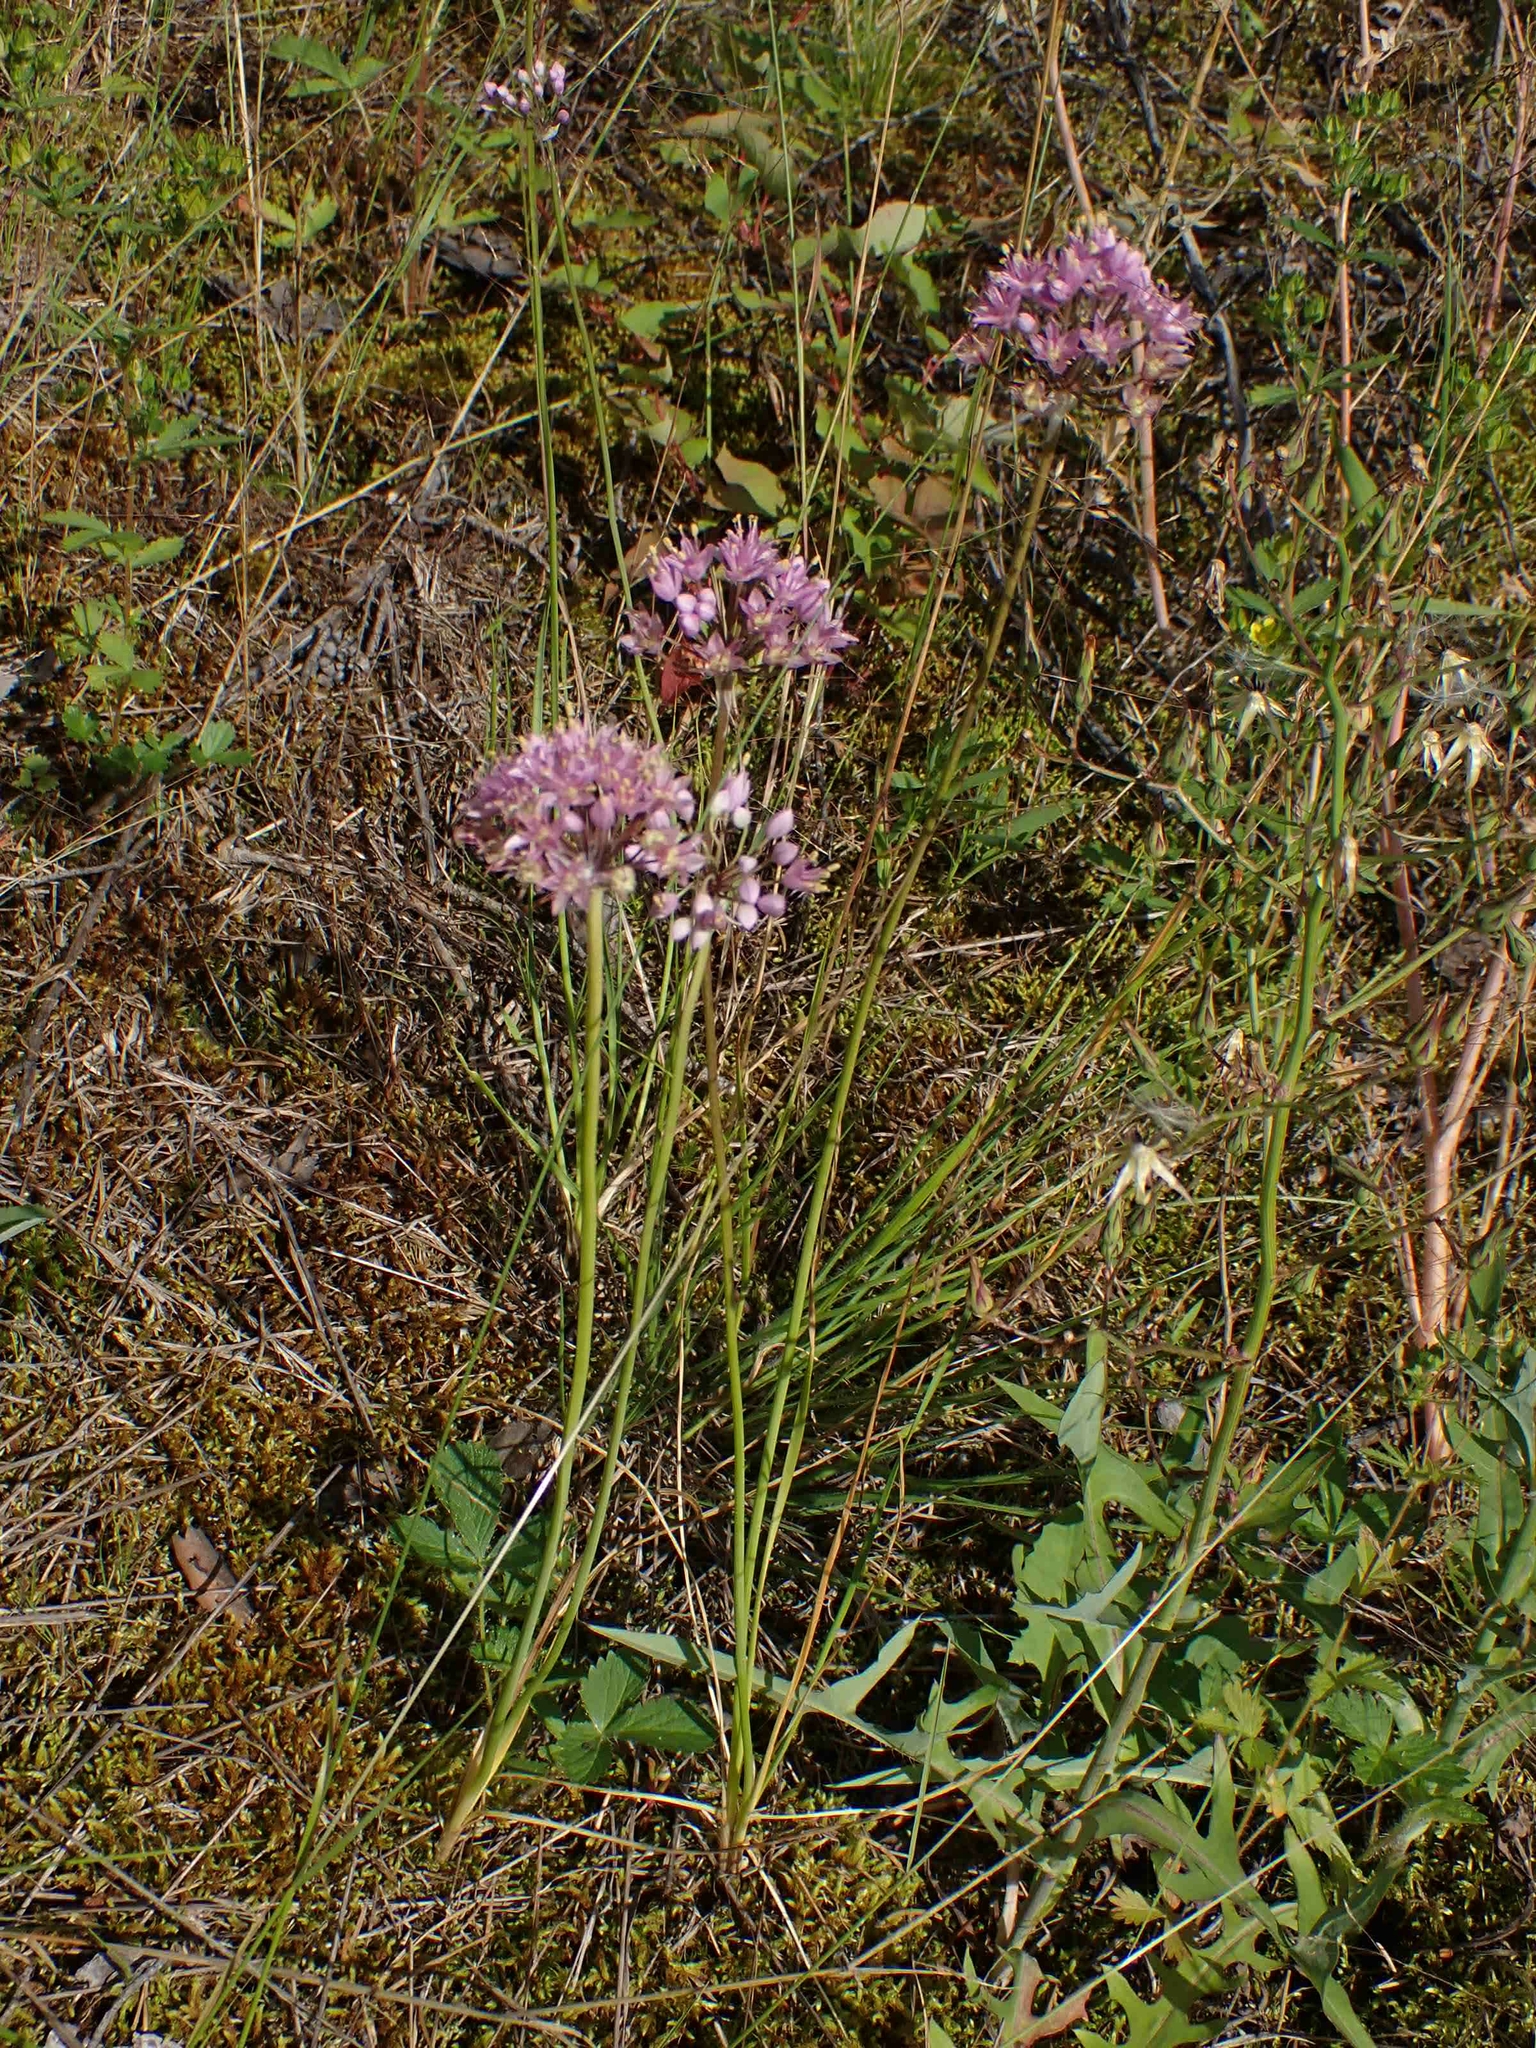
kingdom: Plantae
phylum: Tracheophyta
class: Liliopsida
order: Asparagales
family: Amaryllidaceae
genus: Allium
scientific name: Allium stellatum
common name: Autumn onion
